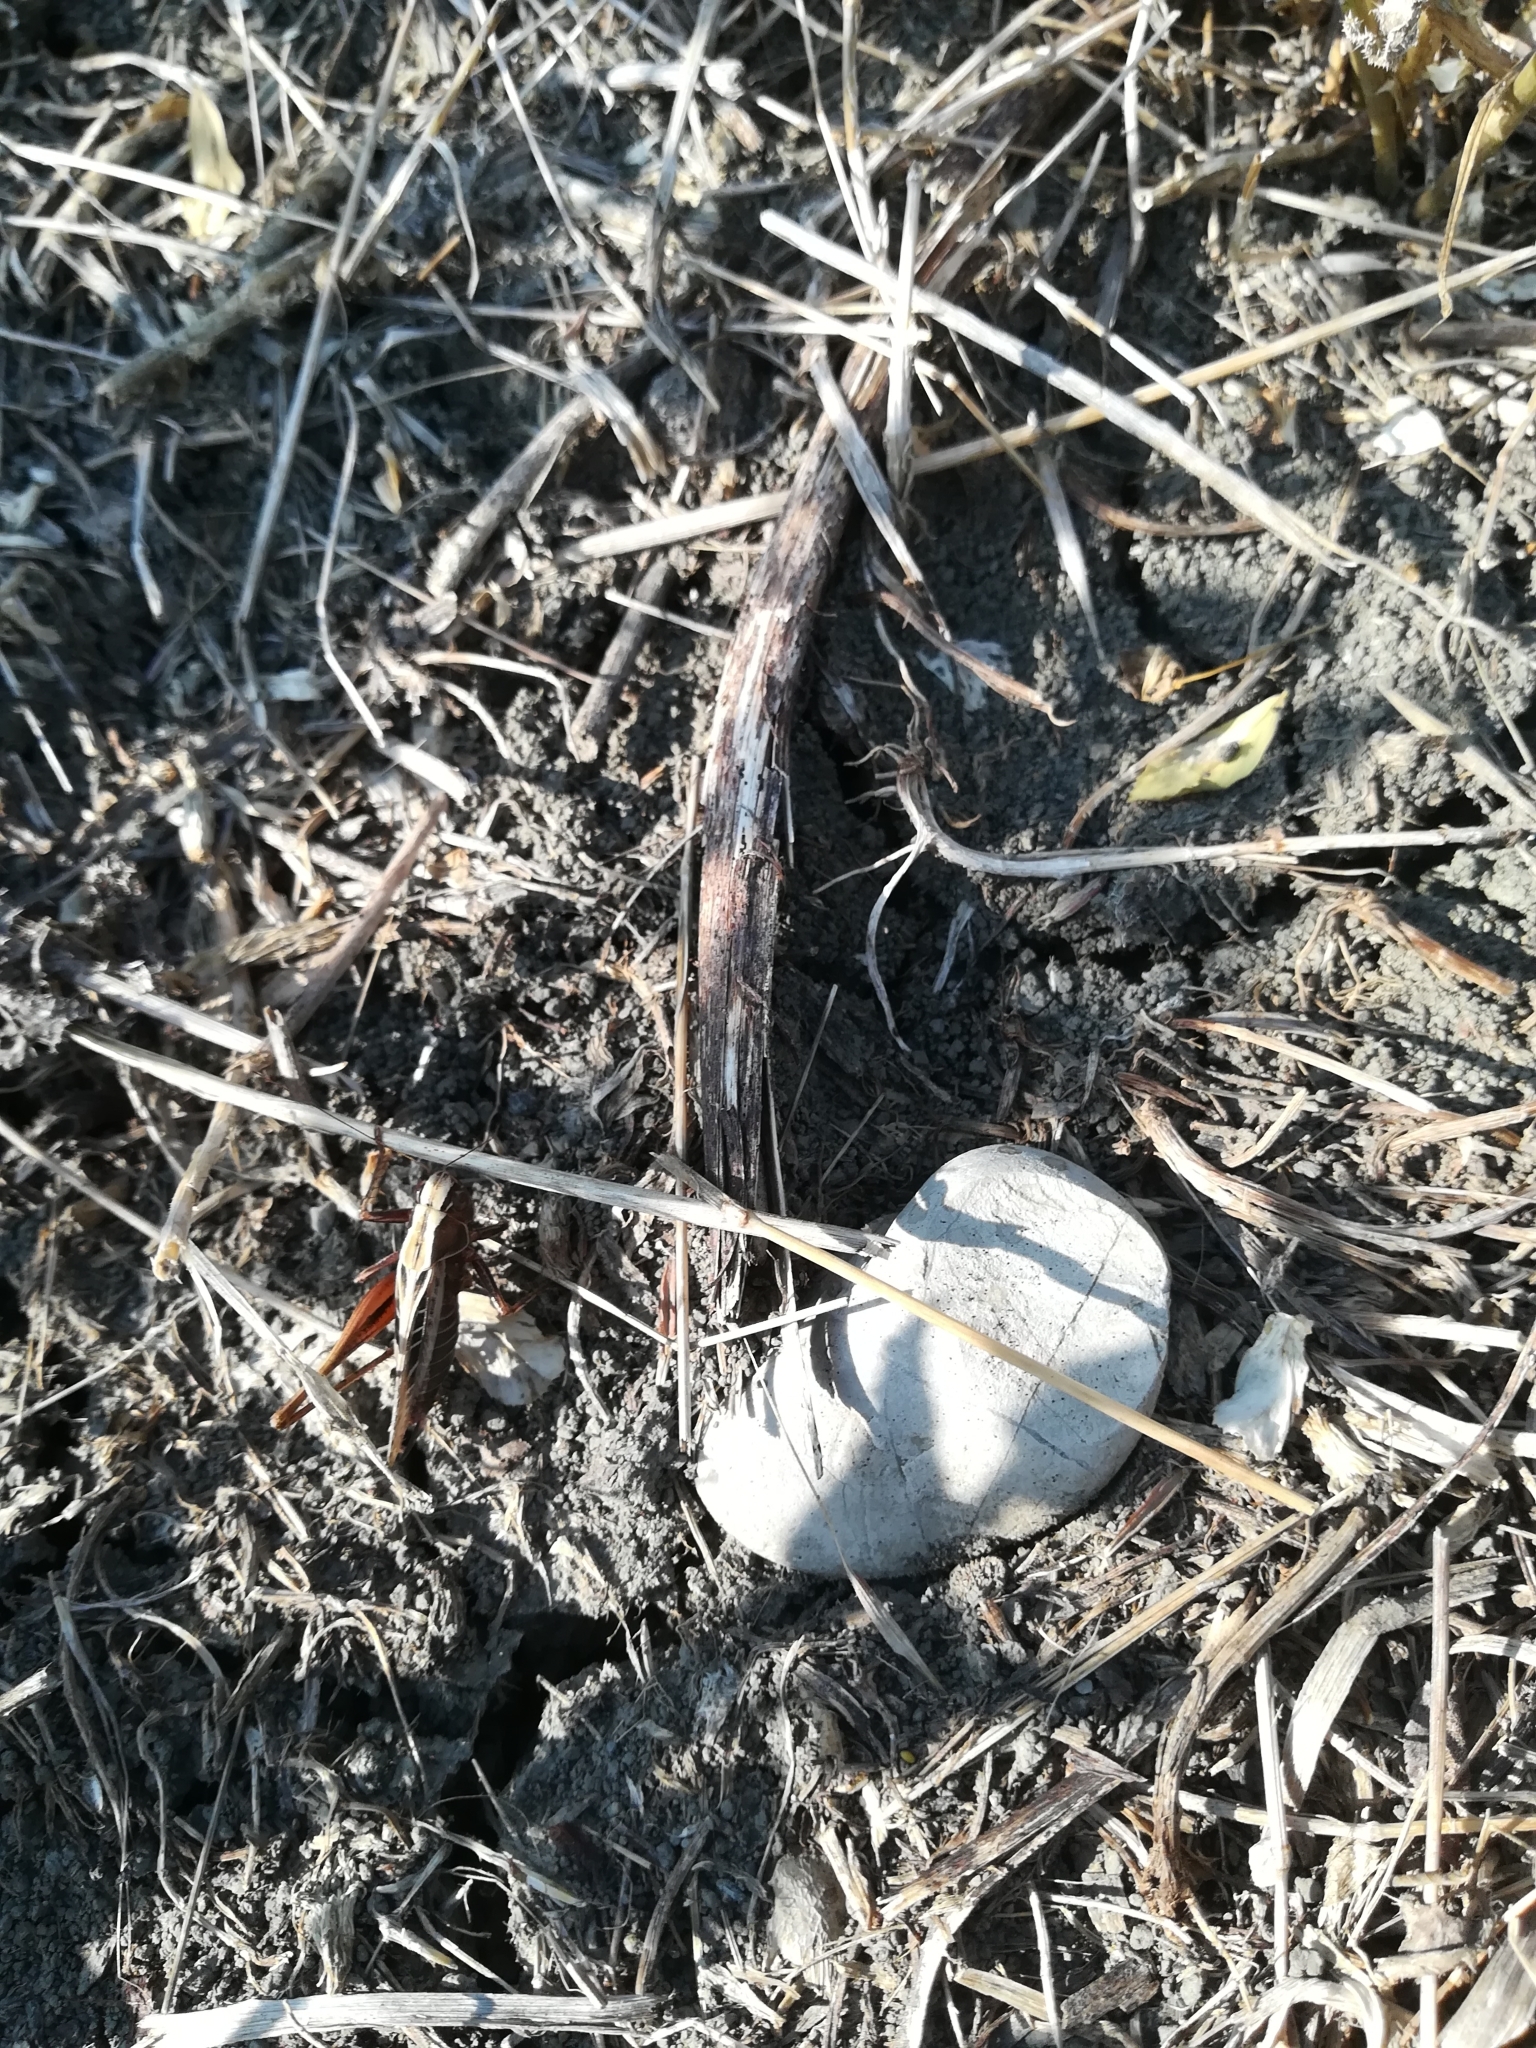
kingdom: Animalia
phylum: Arthropoda
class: Insecta
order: Orthoptera
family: Tettigoniidae
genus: Tessellana
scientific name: Tessellana tessellata
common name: Grasshopper
